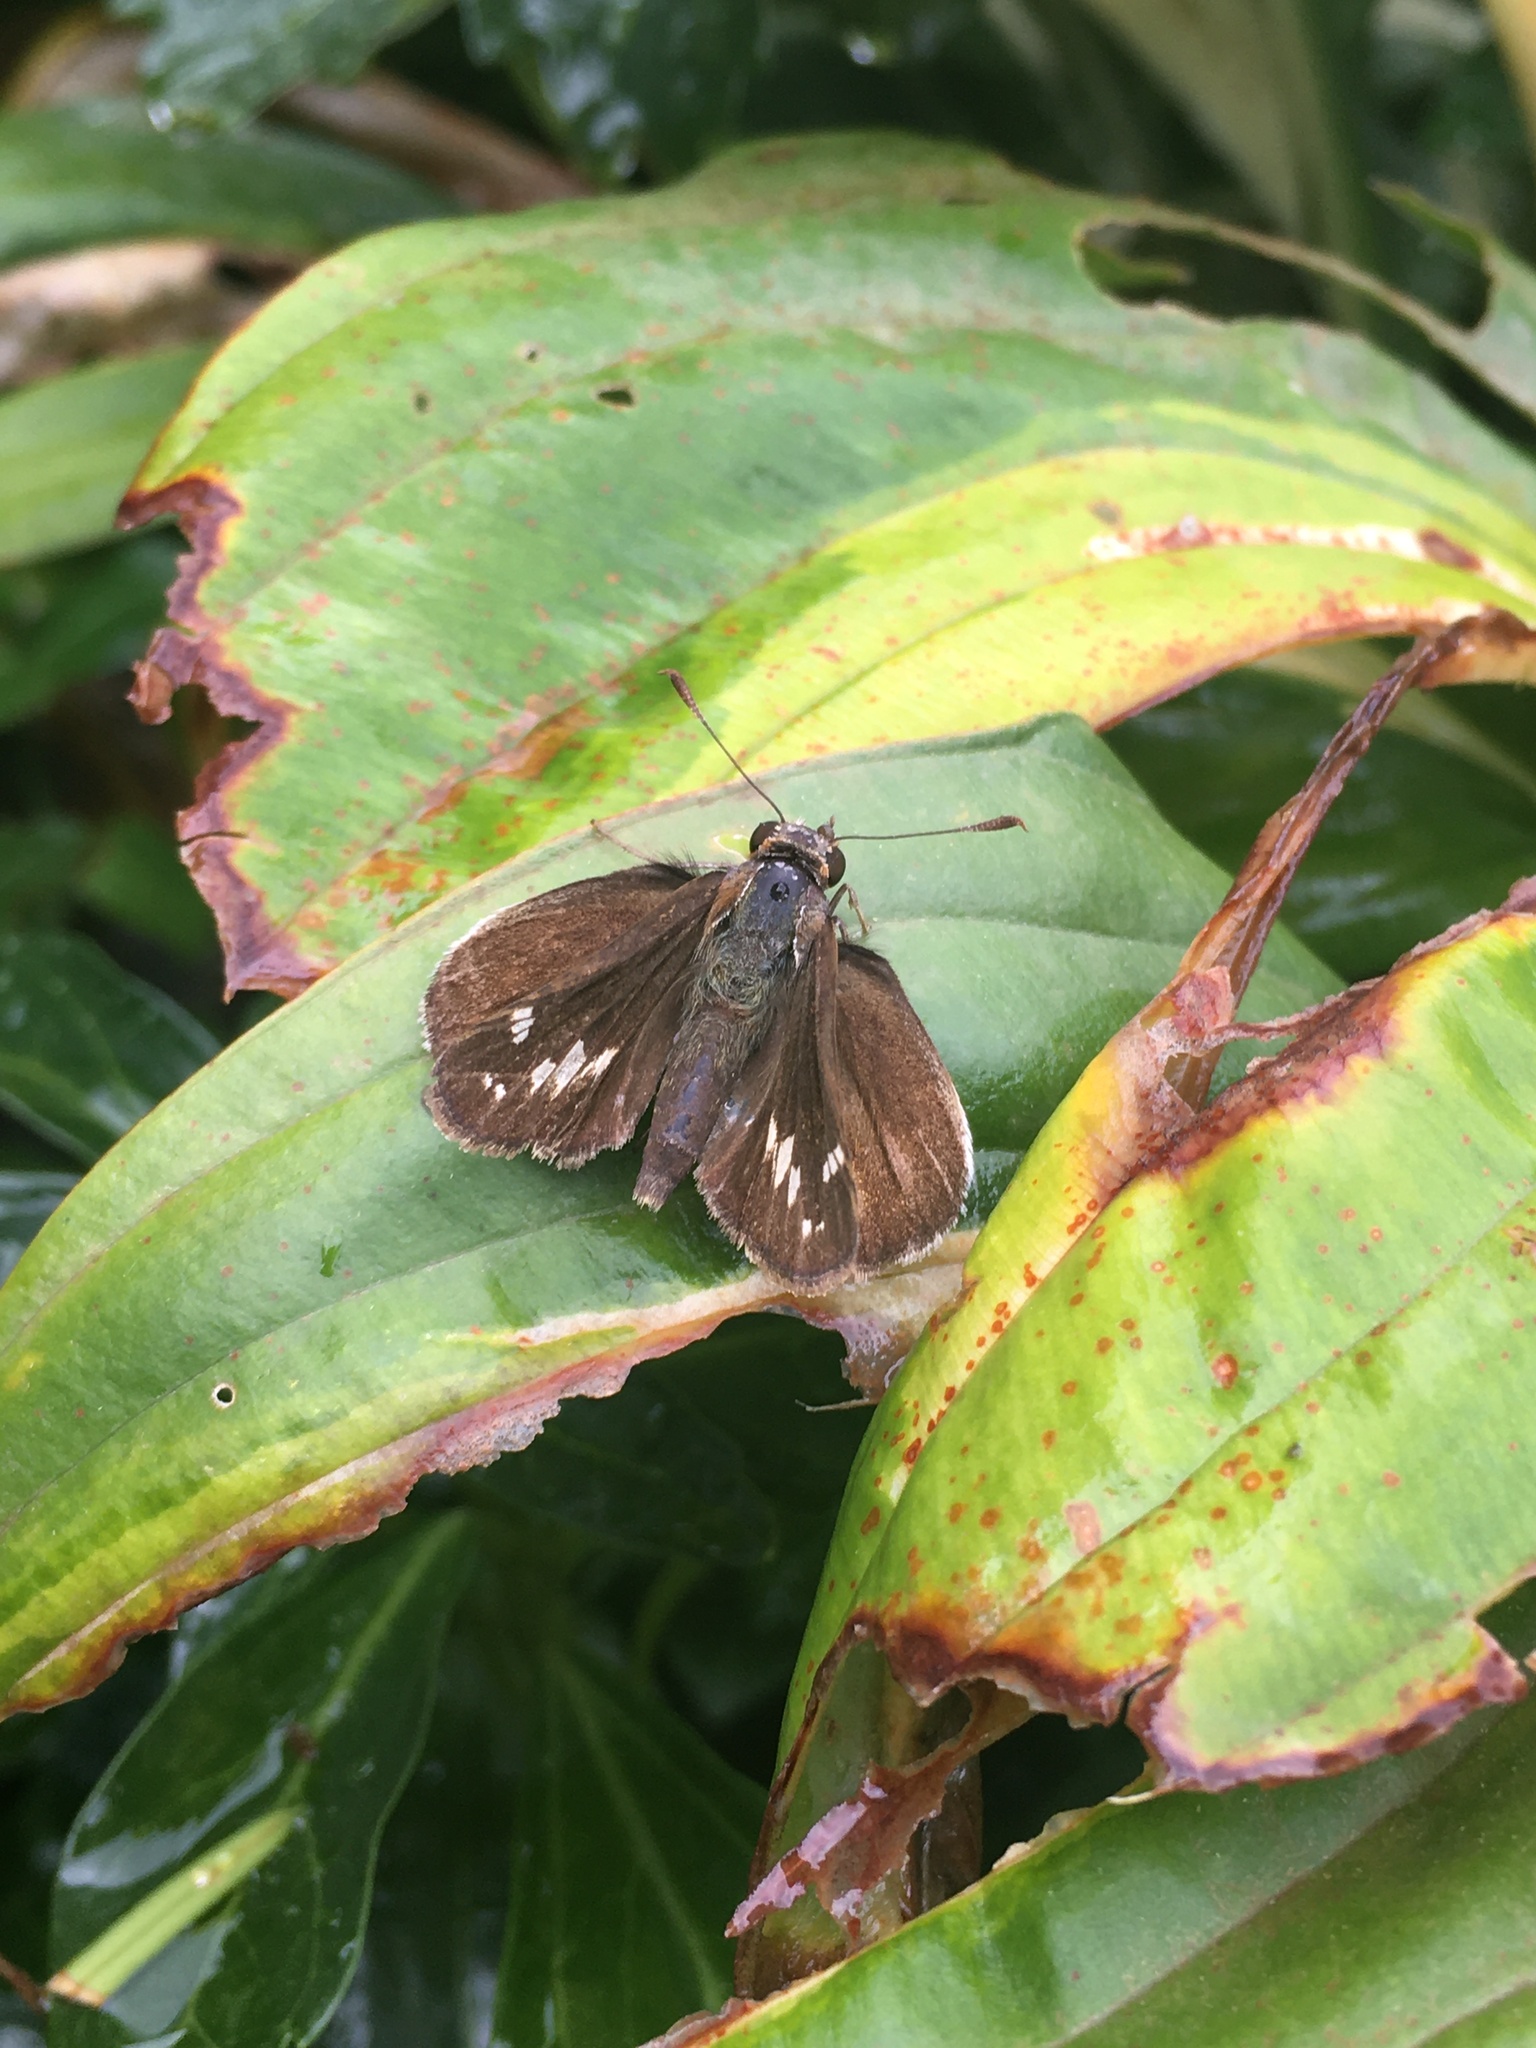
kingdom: Animalia
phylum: Arthropoda
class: Insecta
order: Lepidoptera
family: Hesperiidae
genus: Lon
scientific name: Lon zabulon
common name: Zabulon skipper
